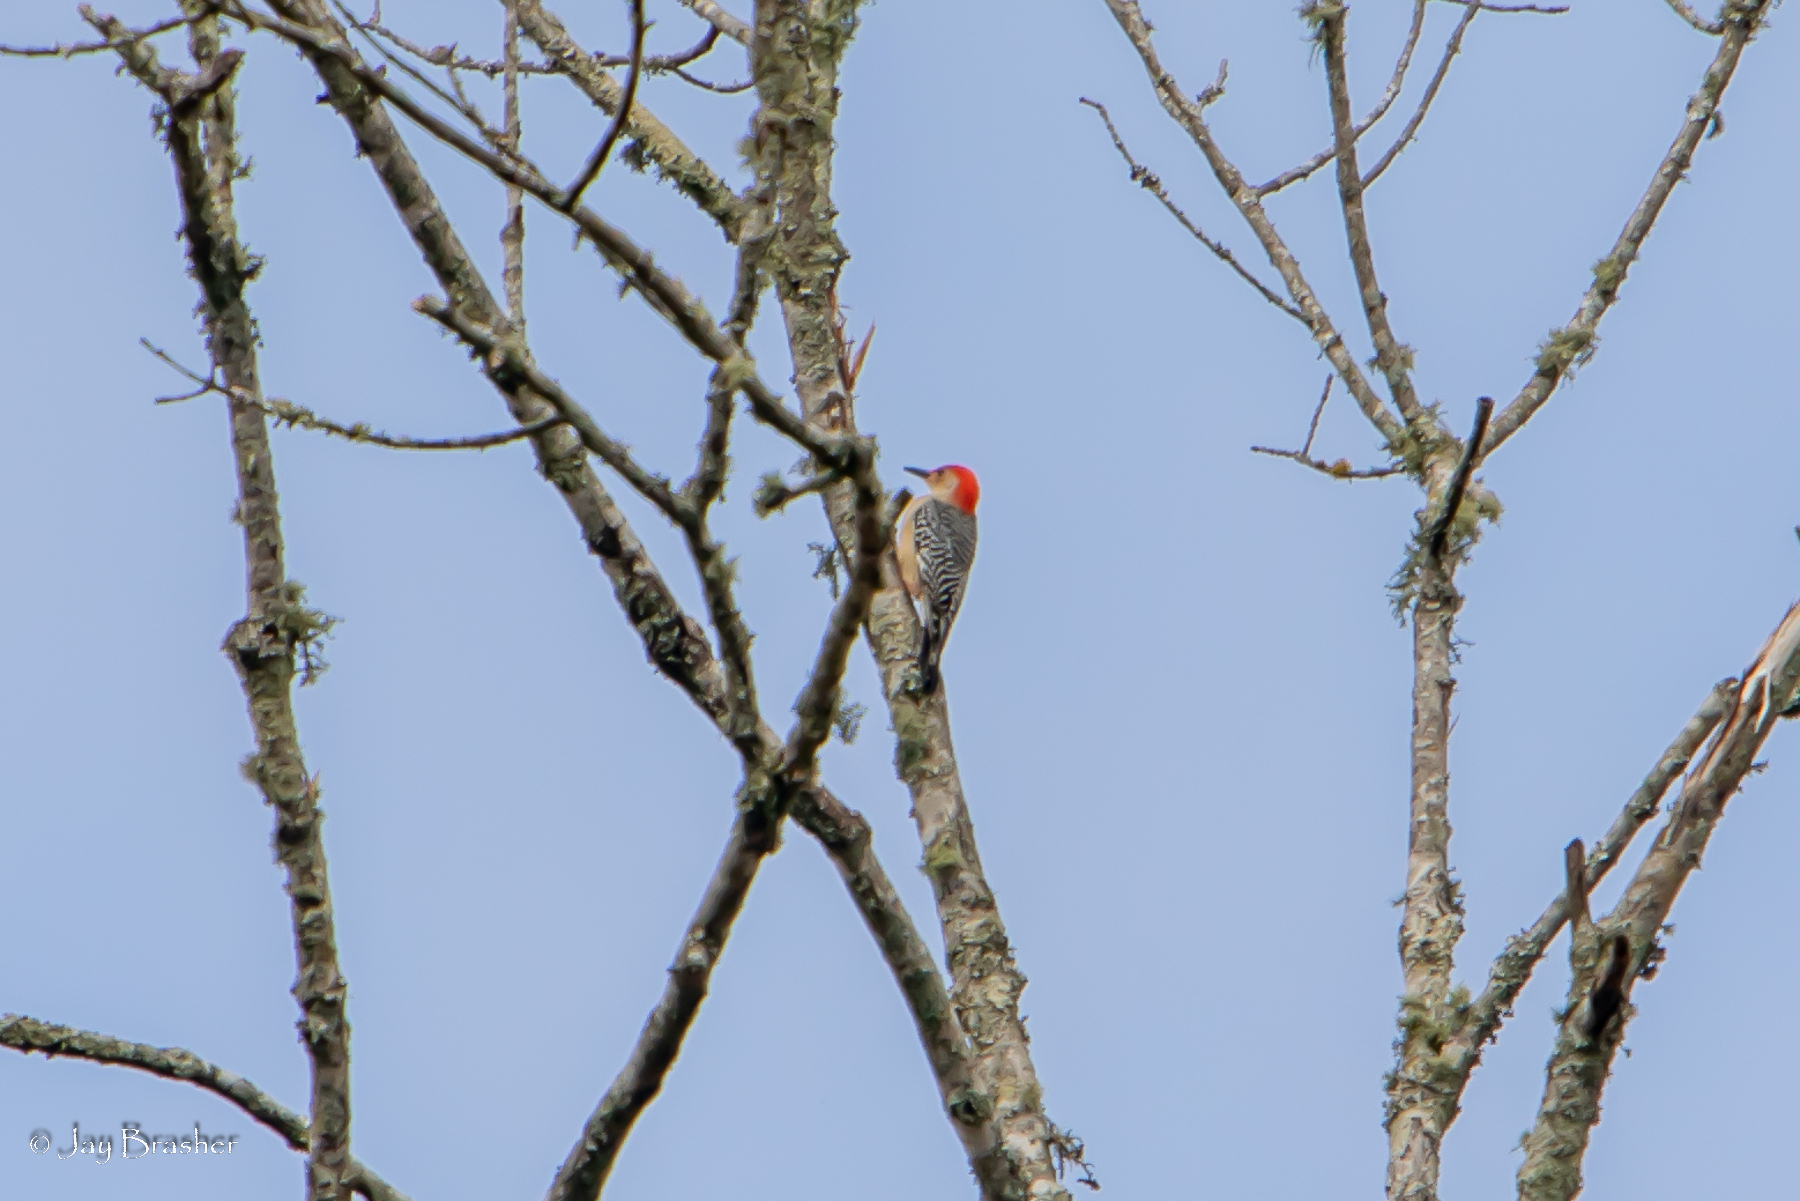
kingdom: Animalia
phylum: Chordata
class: Aves
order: Piciformes
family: Picidae
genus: Melanerpes
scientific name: Melanerpes carolinus
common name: Red-bellied woodpecker
